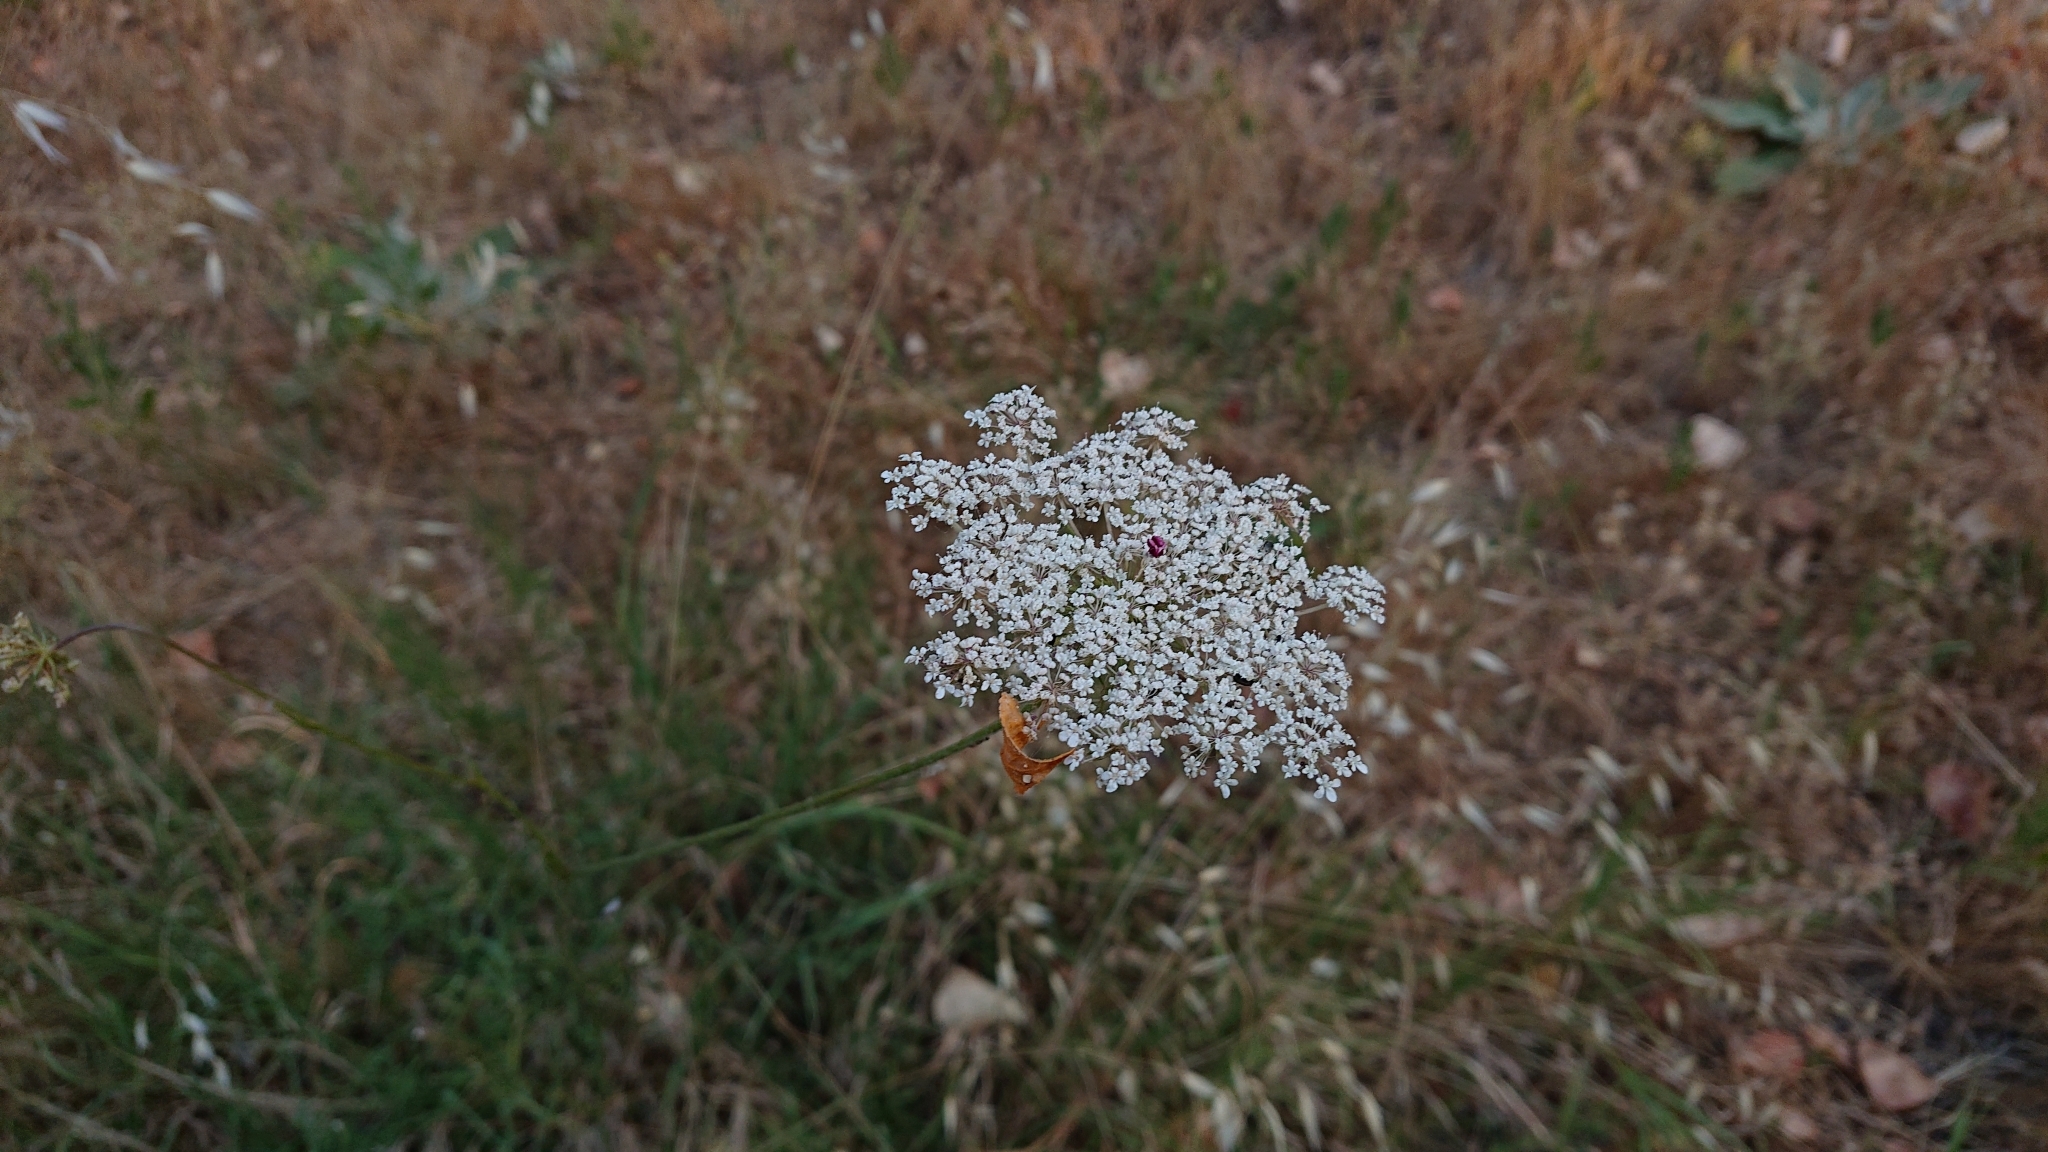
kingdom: Plantae
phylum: Tracheophyta
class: Magnoliopsida
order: Apiales
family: Apiaceae
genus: Daucus
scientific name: Daucus carota
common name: Wild carrot
